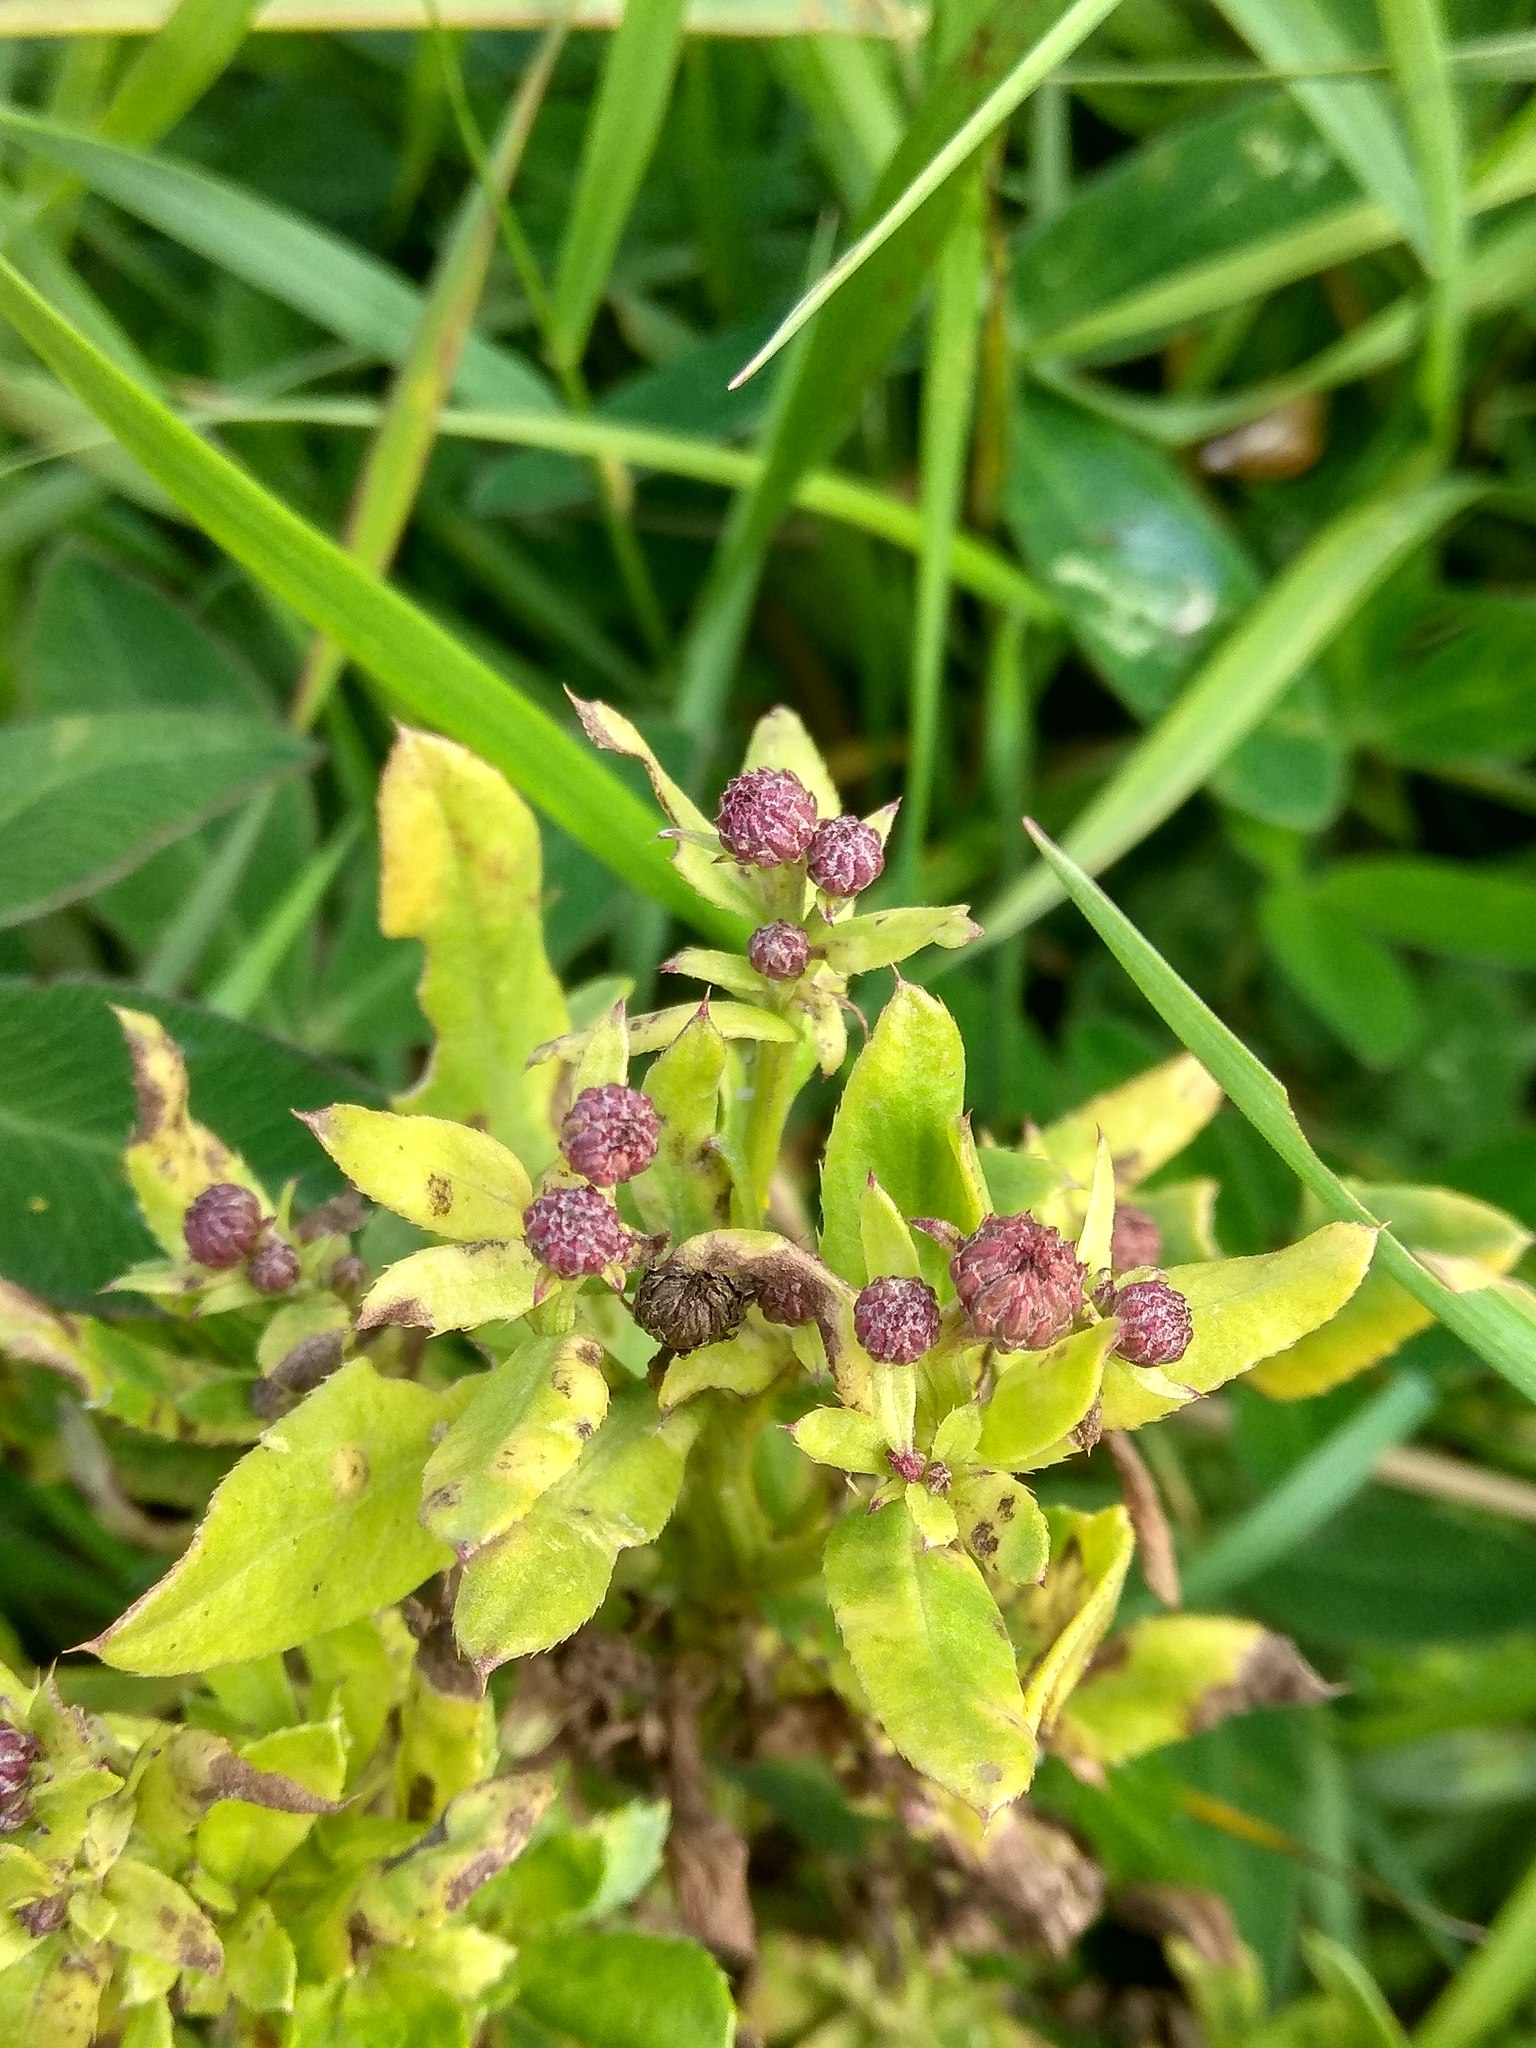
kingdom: Plantae
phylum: Tracheophyta
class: Magnoliopsida
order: Asterales
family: Asteraceae
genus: Cirsium
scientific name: Cirsium arvense
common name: Creeping thistle
